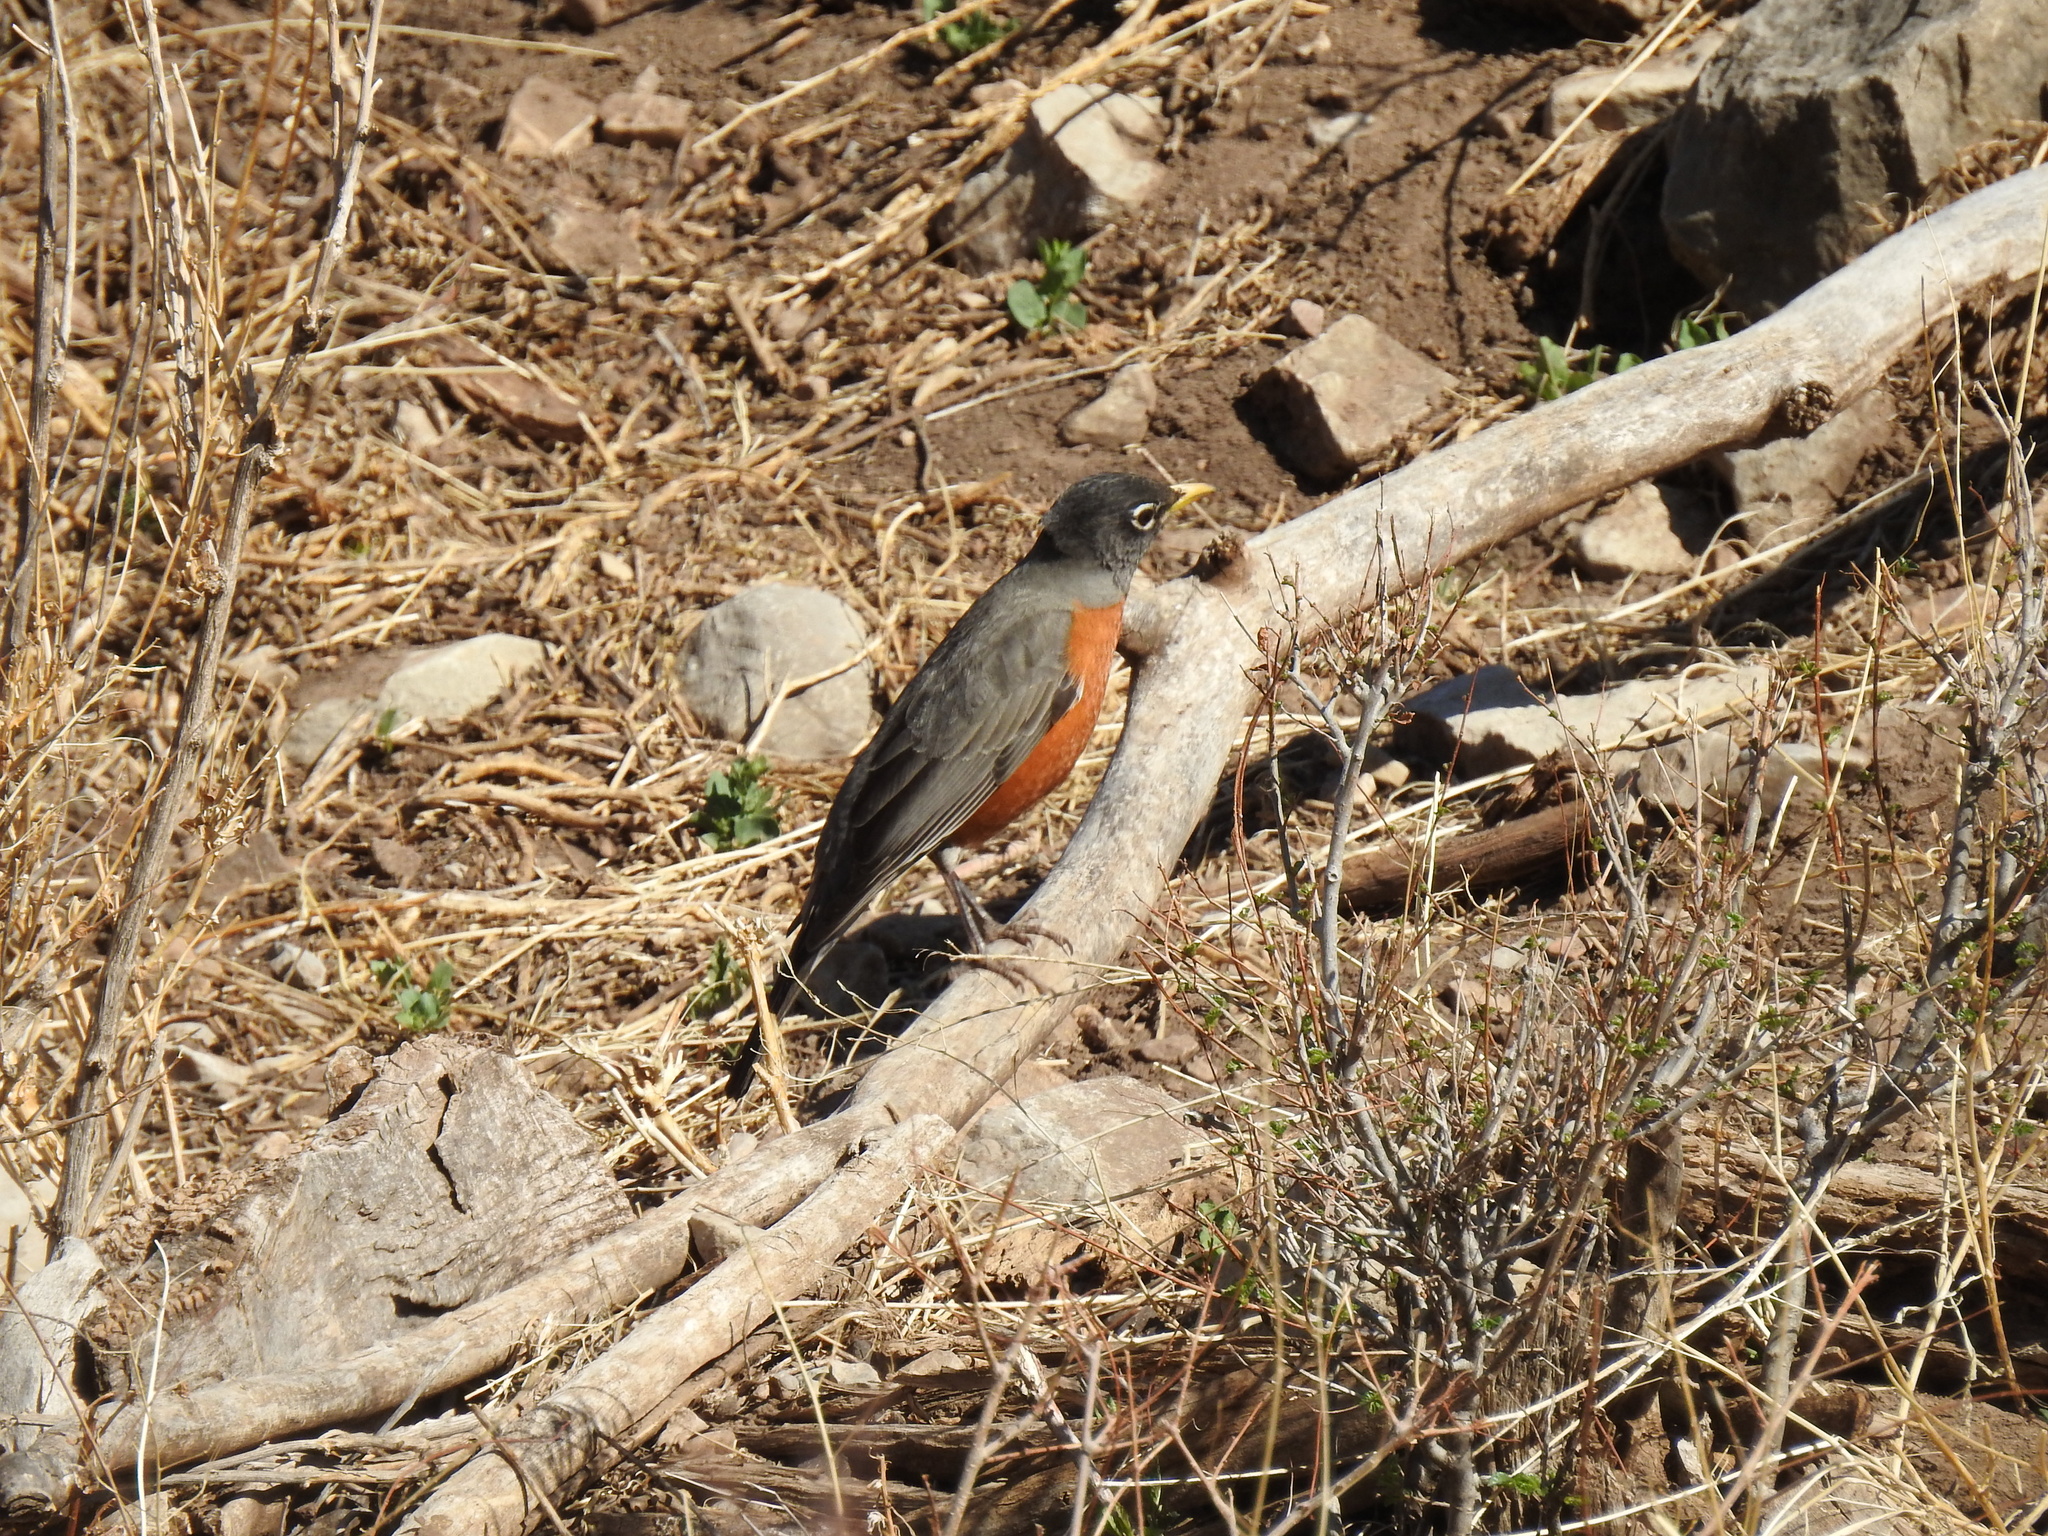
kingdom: Animalia
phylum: Chordata
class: Aves
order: Passeriformes
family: Turdidae
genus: Turdus
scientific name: Turdus migratorius
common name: American robin
